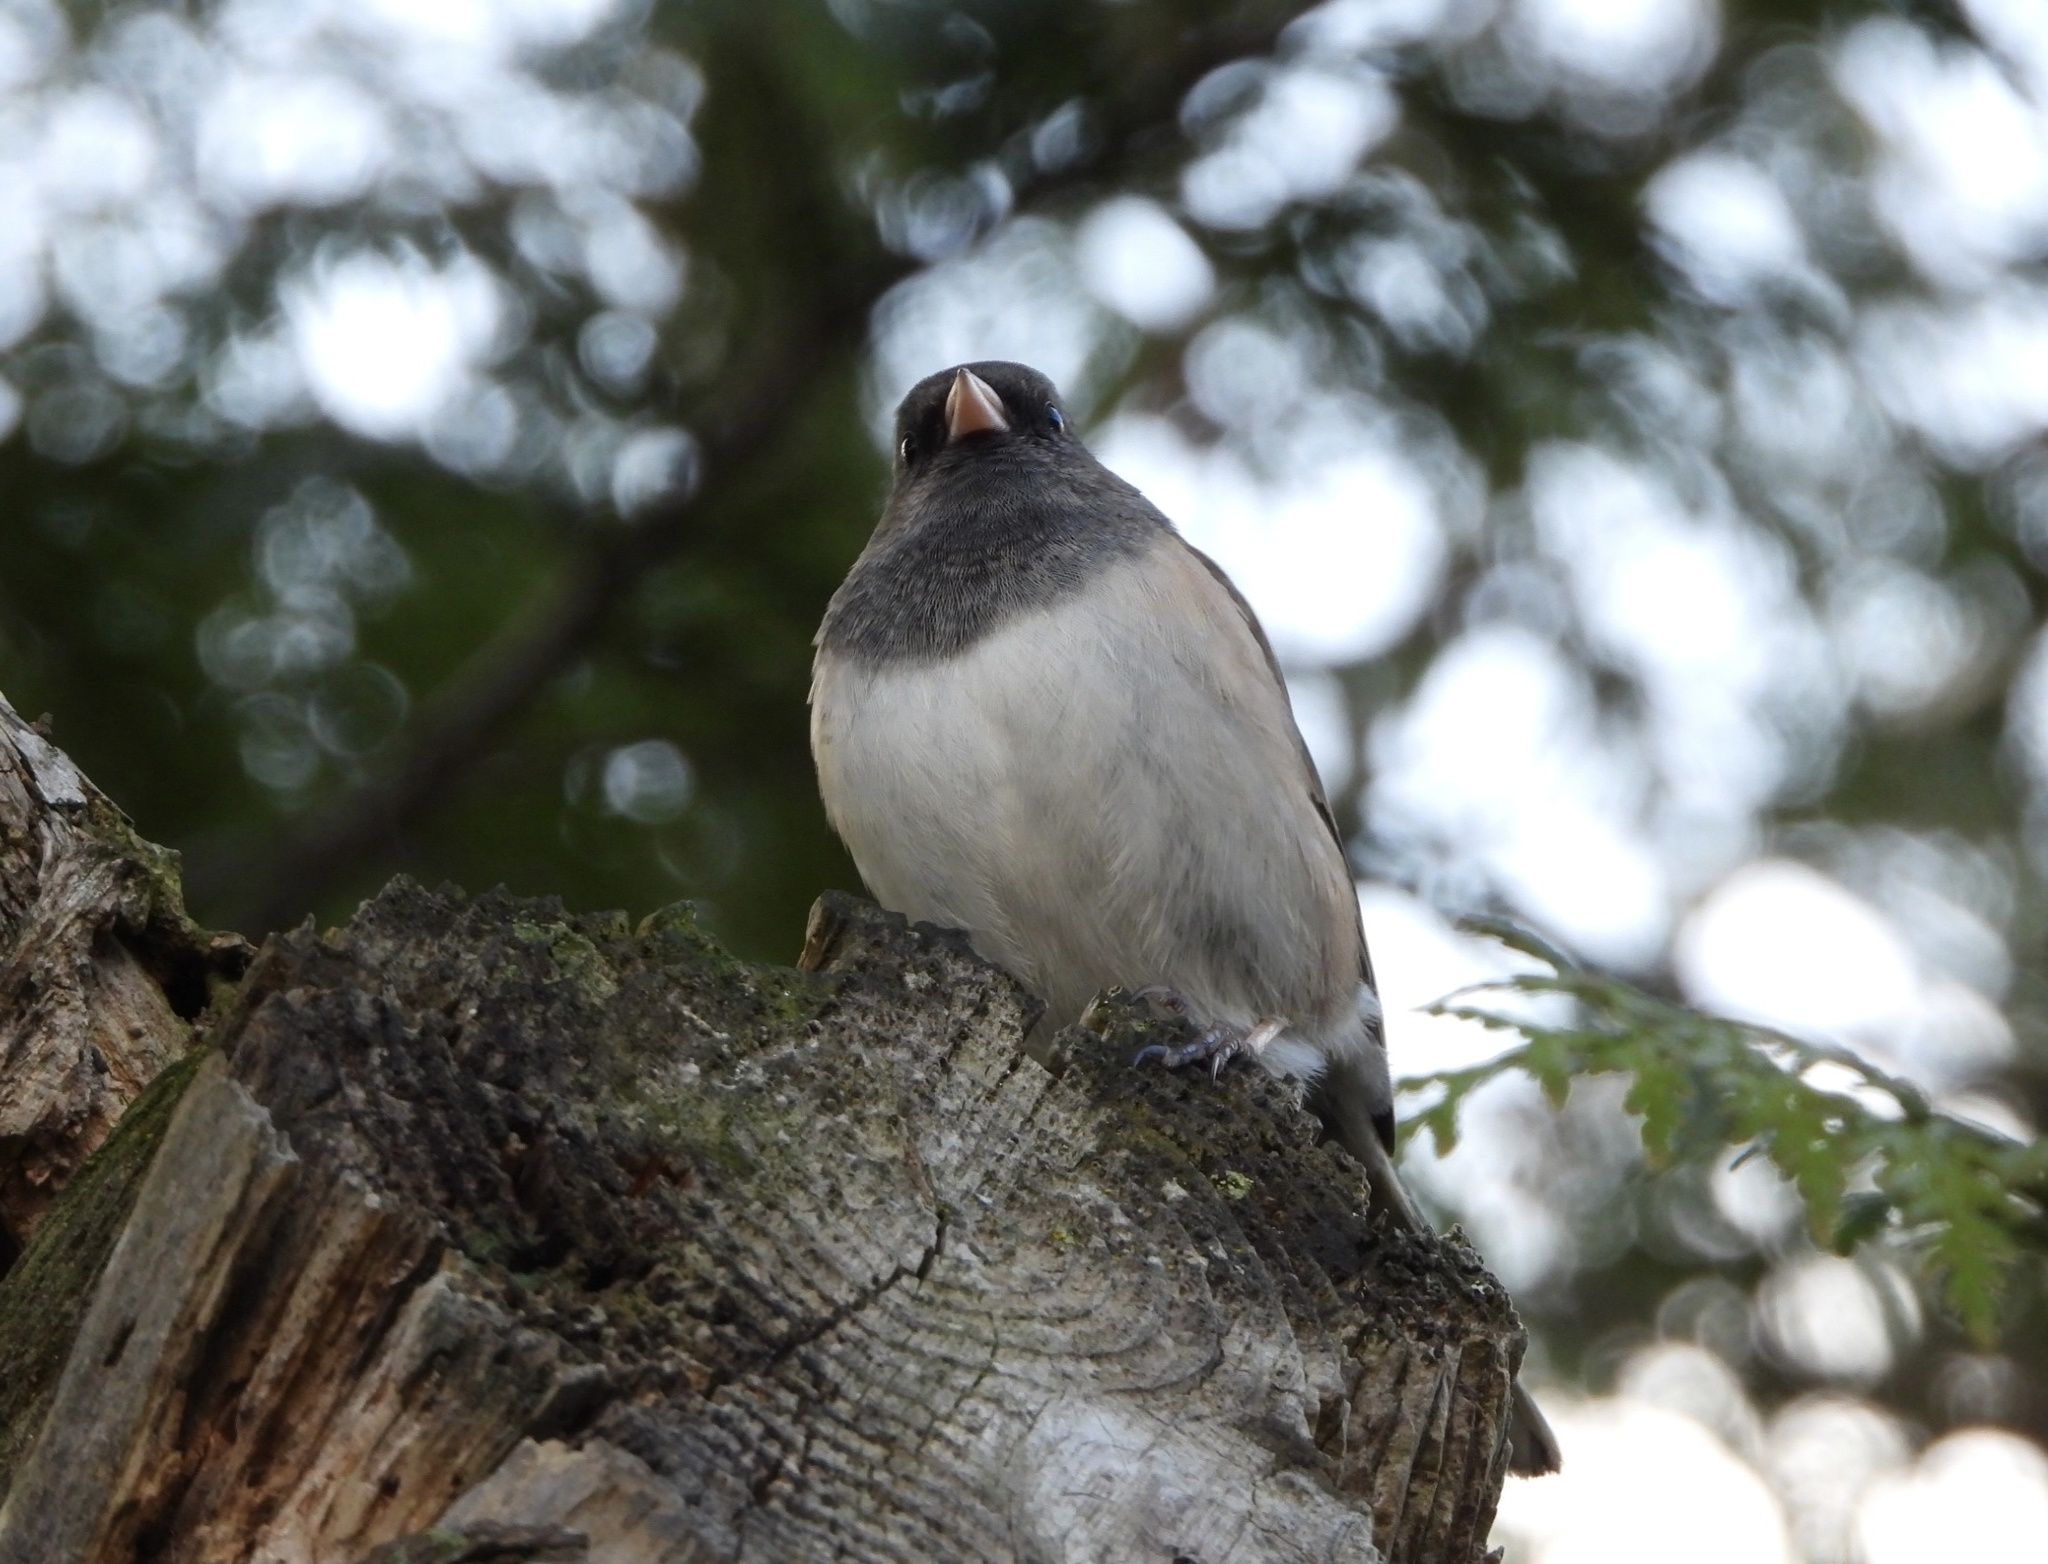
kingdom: Animalia
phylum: Chordata
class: Aves
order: Passeriformes
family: Passerellidae
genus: Junco
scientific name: Junco hyemalis
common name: Dark-eyed junco
